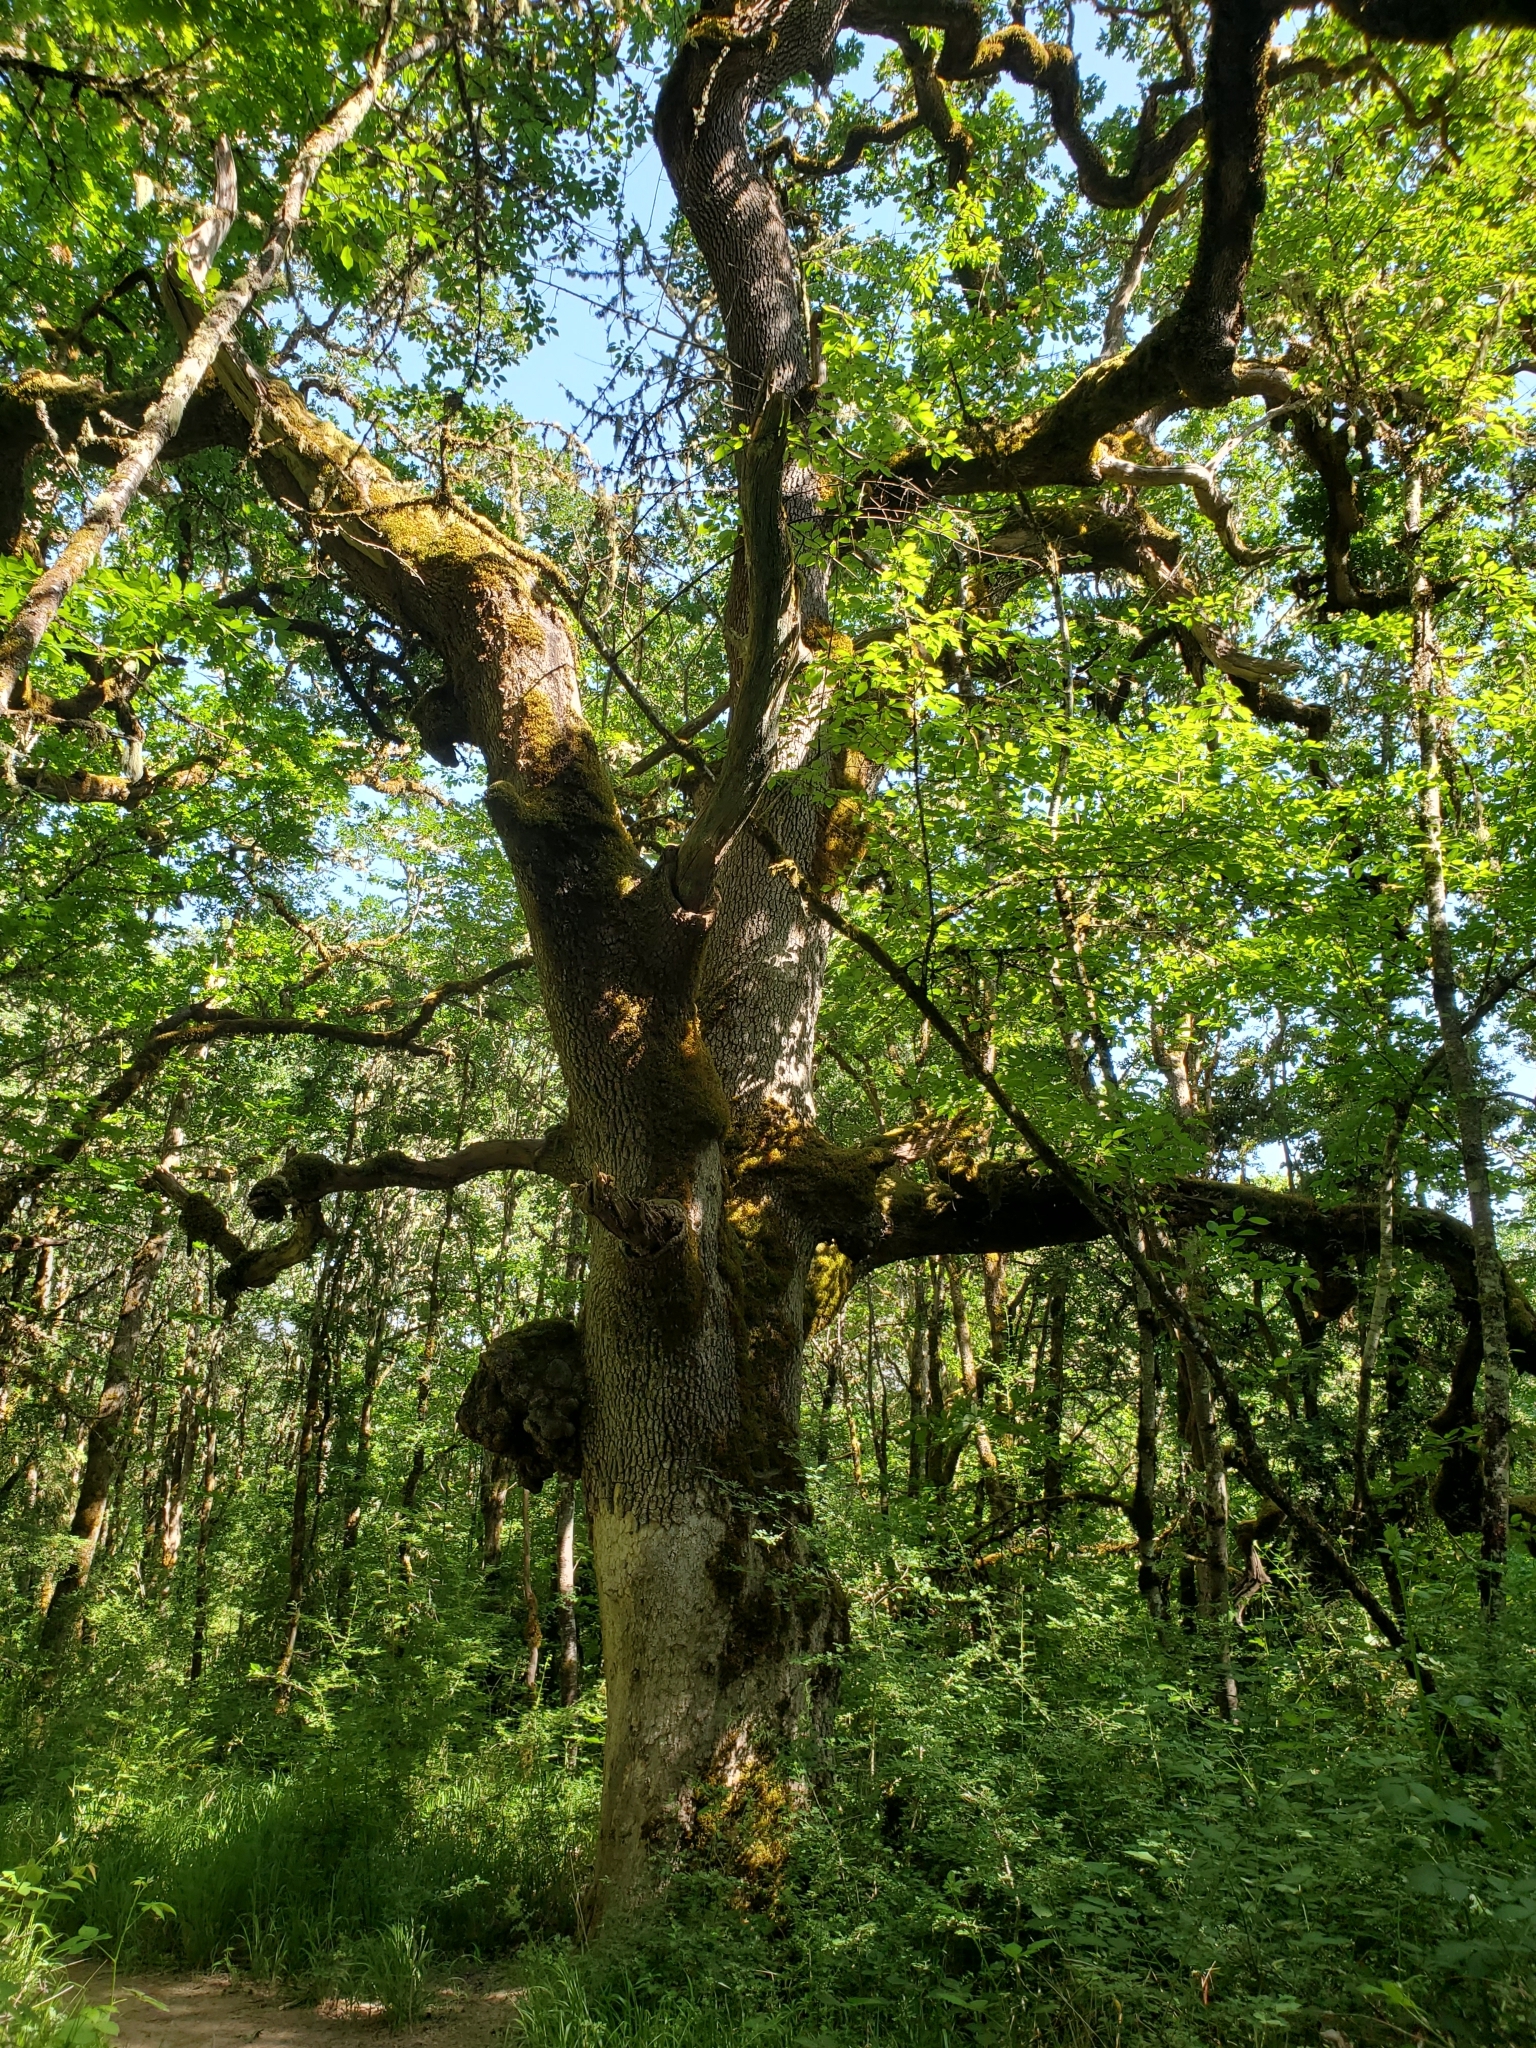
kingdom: Plantae
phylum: Tracheophyta
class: Magnoliopsida
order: Fagales
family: Fagaceae
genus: Quercus
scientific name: Quercus garryana
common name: Garry oak
